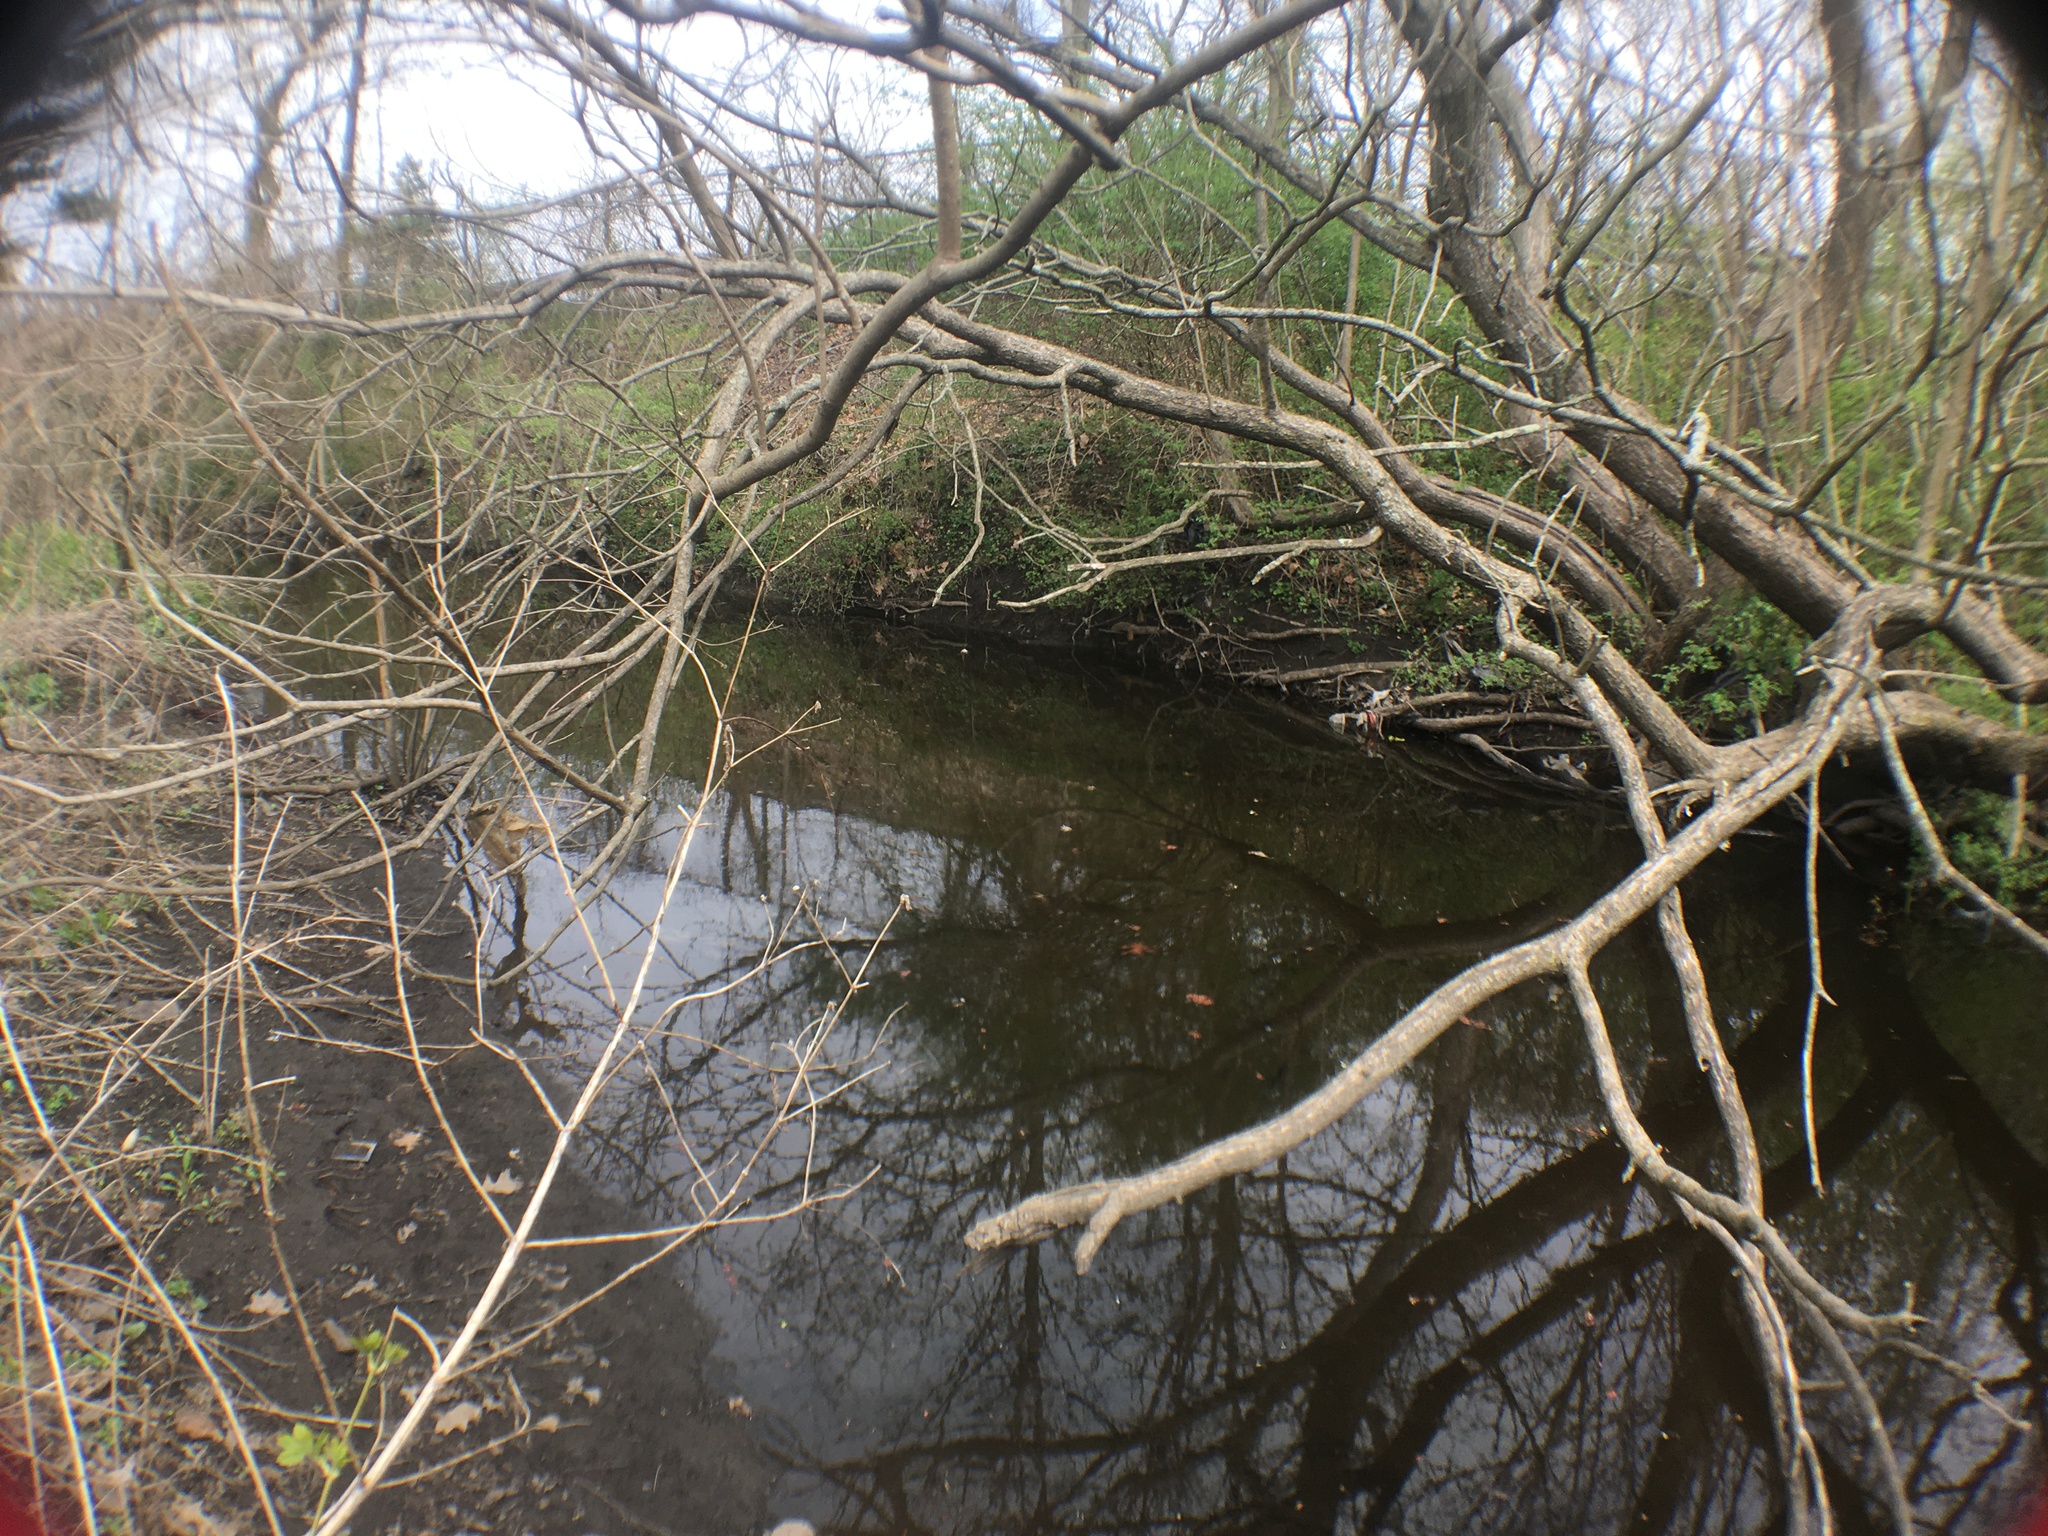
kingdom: Plantae
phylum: Tracheophyta
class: Magnoliopsida
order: Sapindales
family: Sapindaceae
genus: Acer
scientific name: Acer negundo
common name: Ashleaf maple
